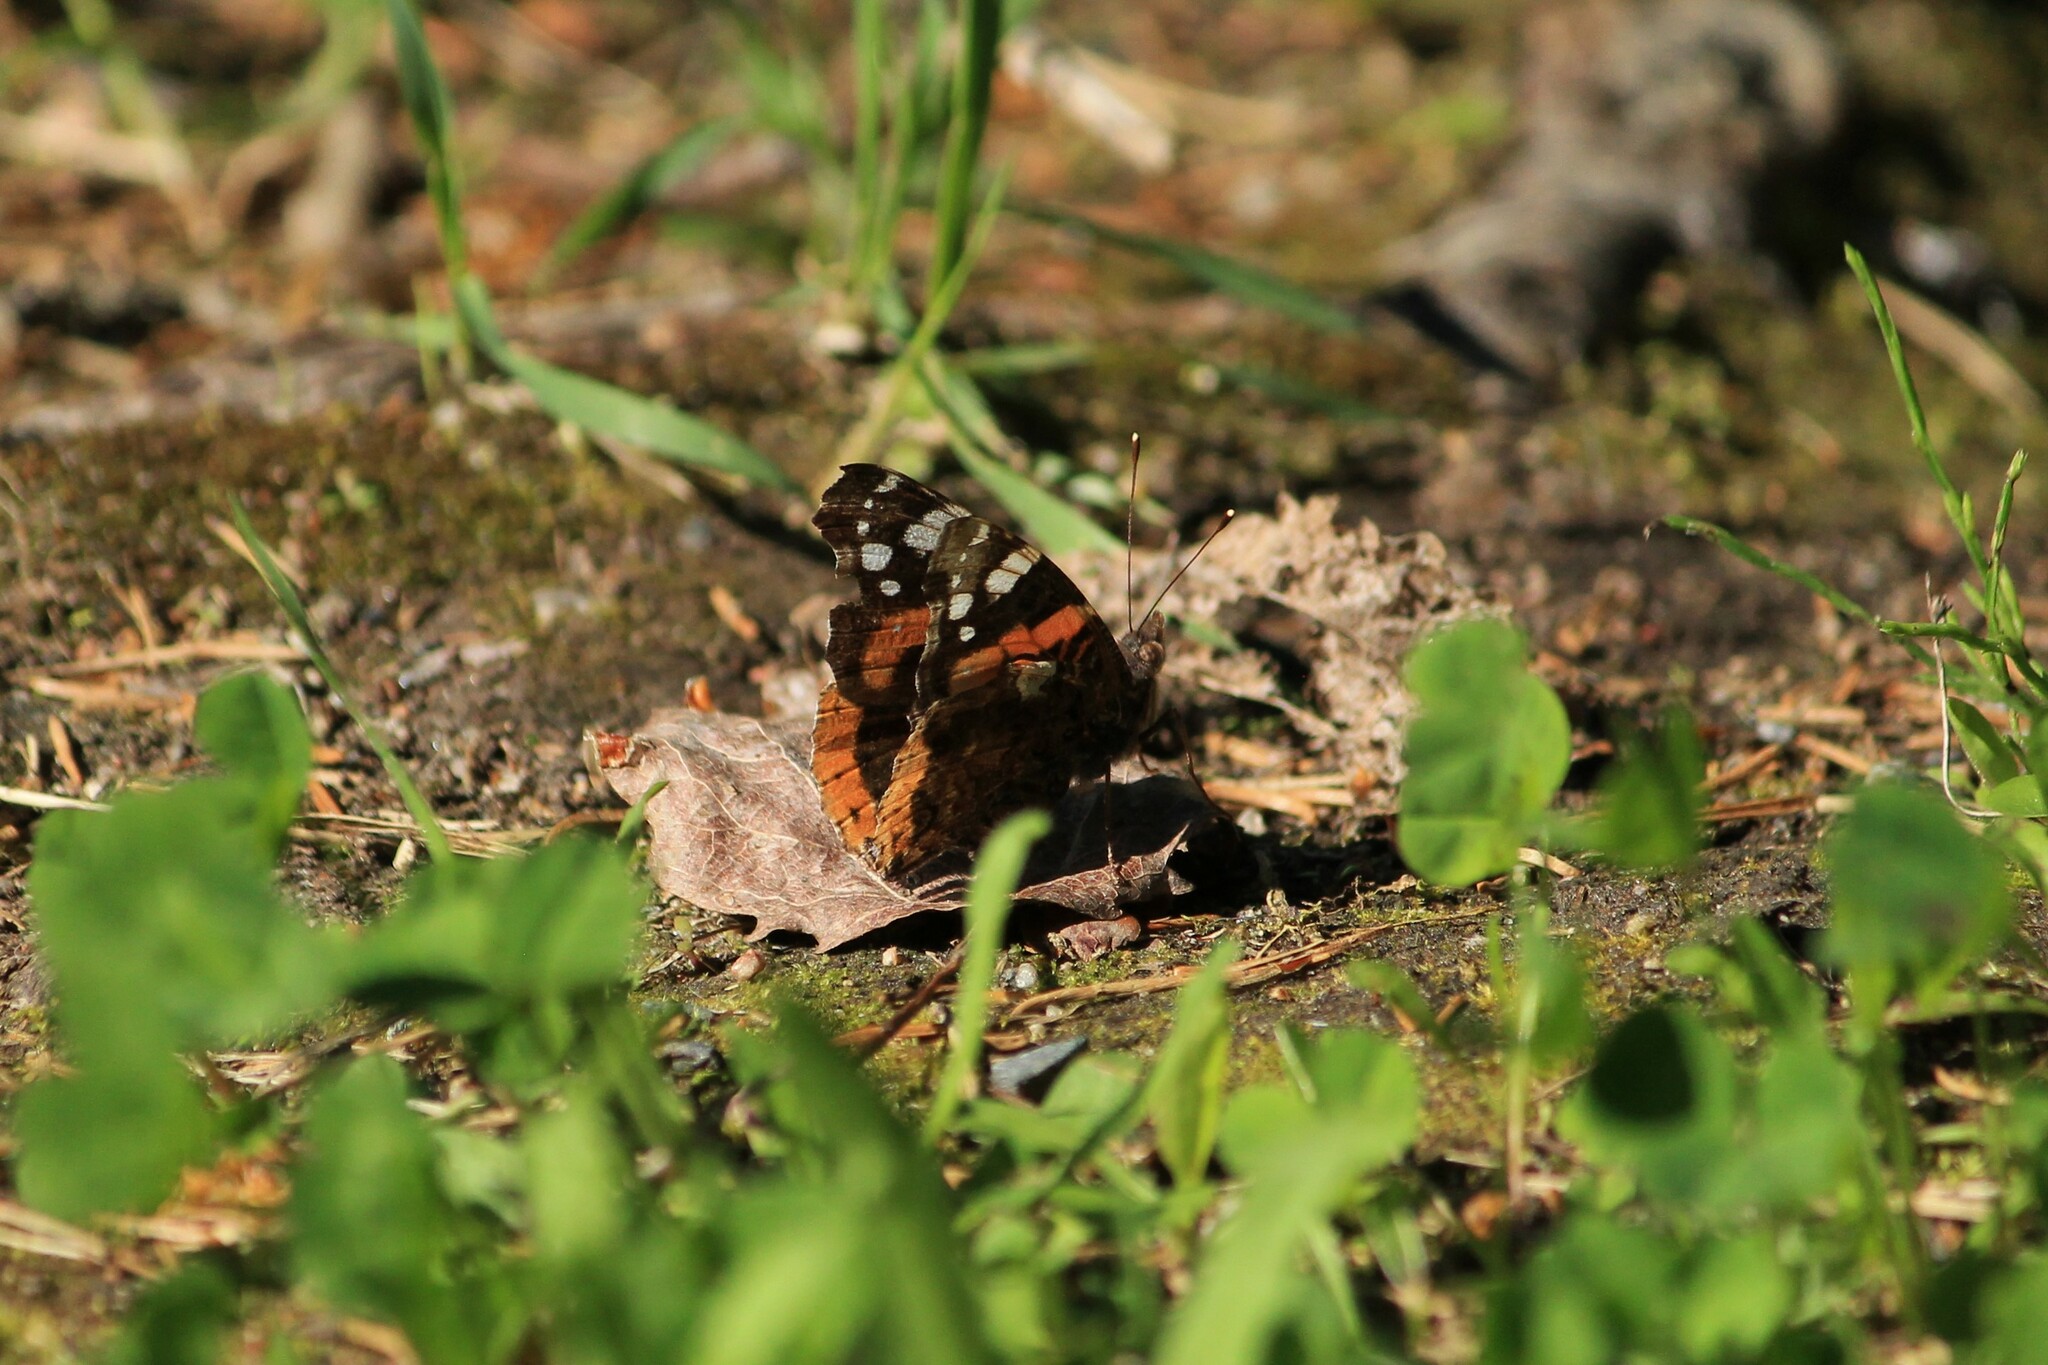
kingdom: Animalia
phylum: Arthropoda
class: Insecta
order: Lepidoptera
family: Nymphalidae
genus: Vanessa
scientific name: Vanessa atalanta
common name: Red admiral
